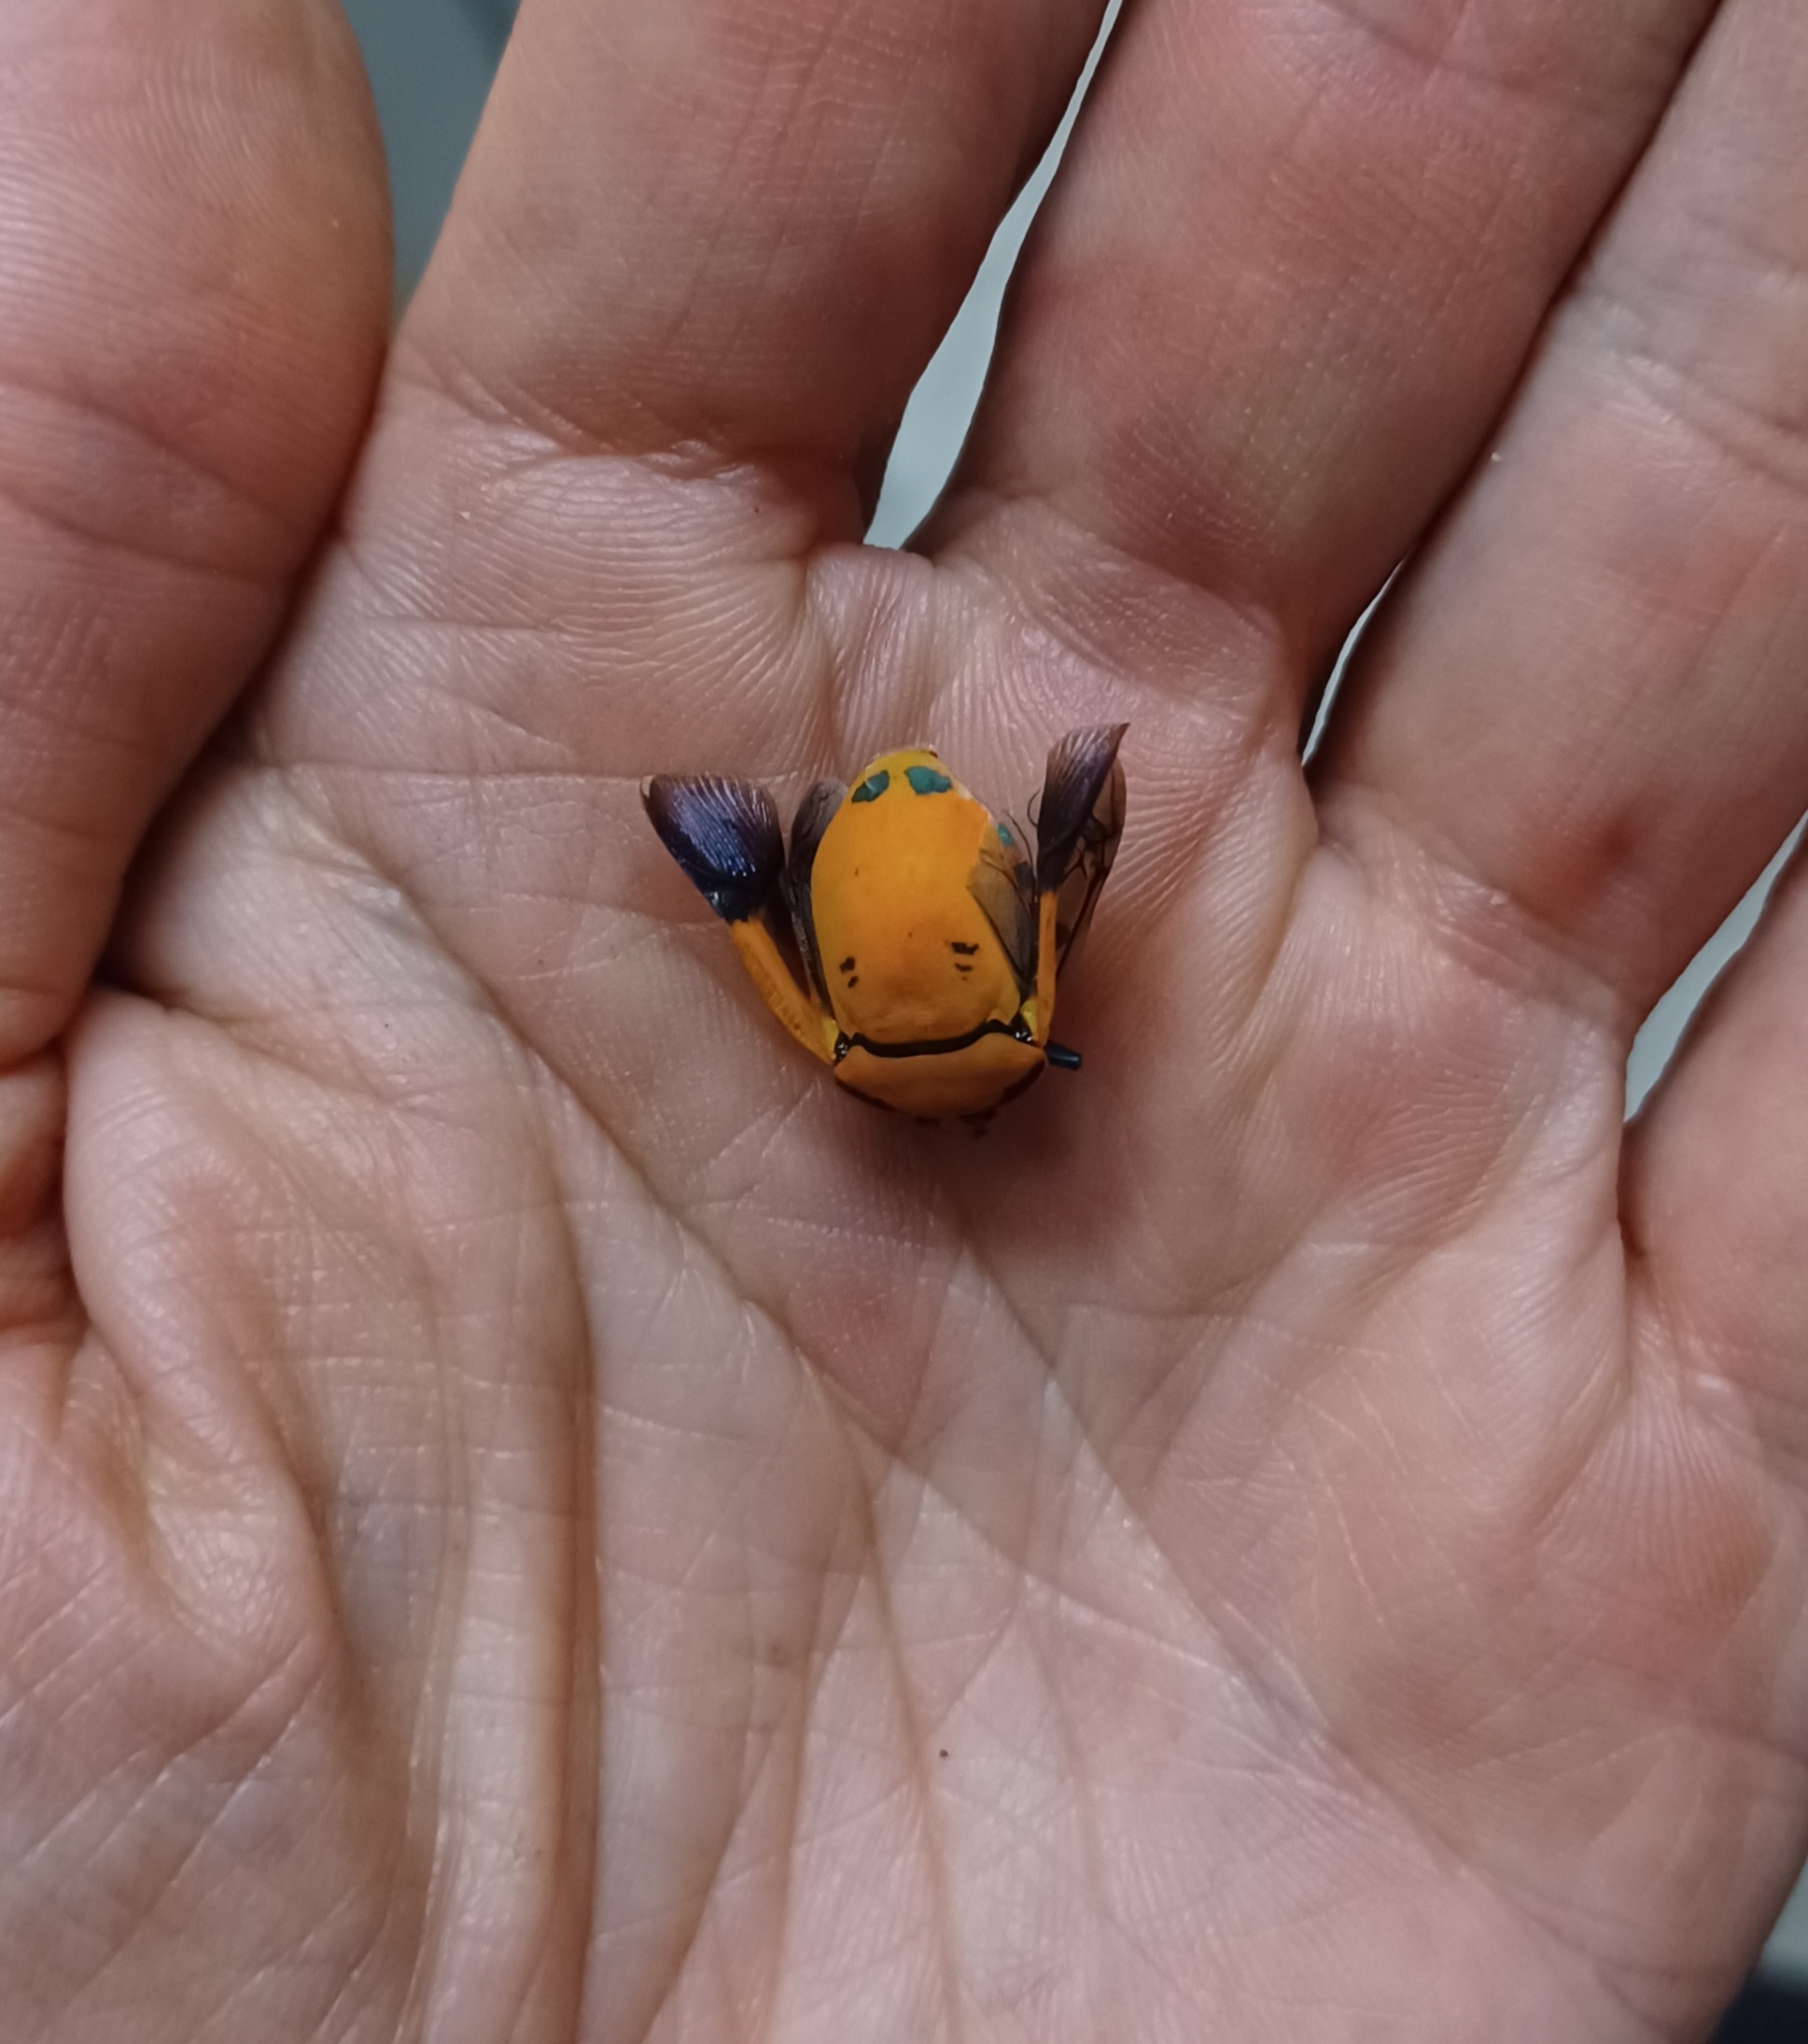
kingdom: Animalia
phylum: Arthropoda
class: Insecta
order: Hemiptera
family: Scutelleridae
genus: Tectocoris
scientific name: Tectocoris diophthalmus
